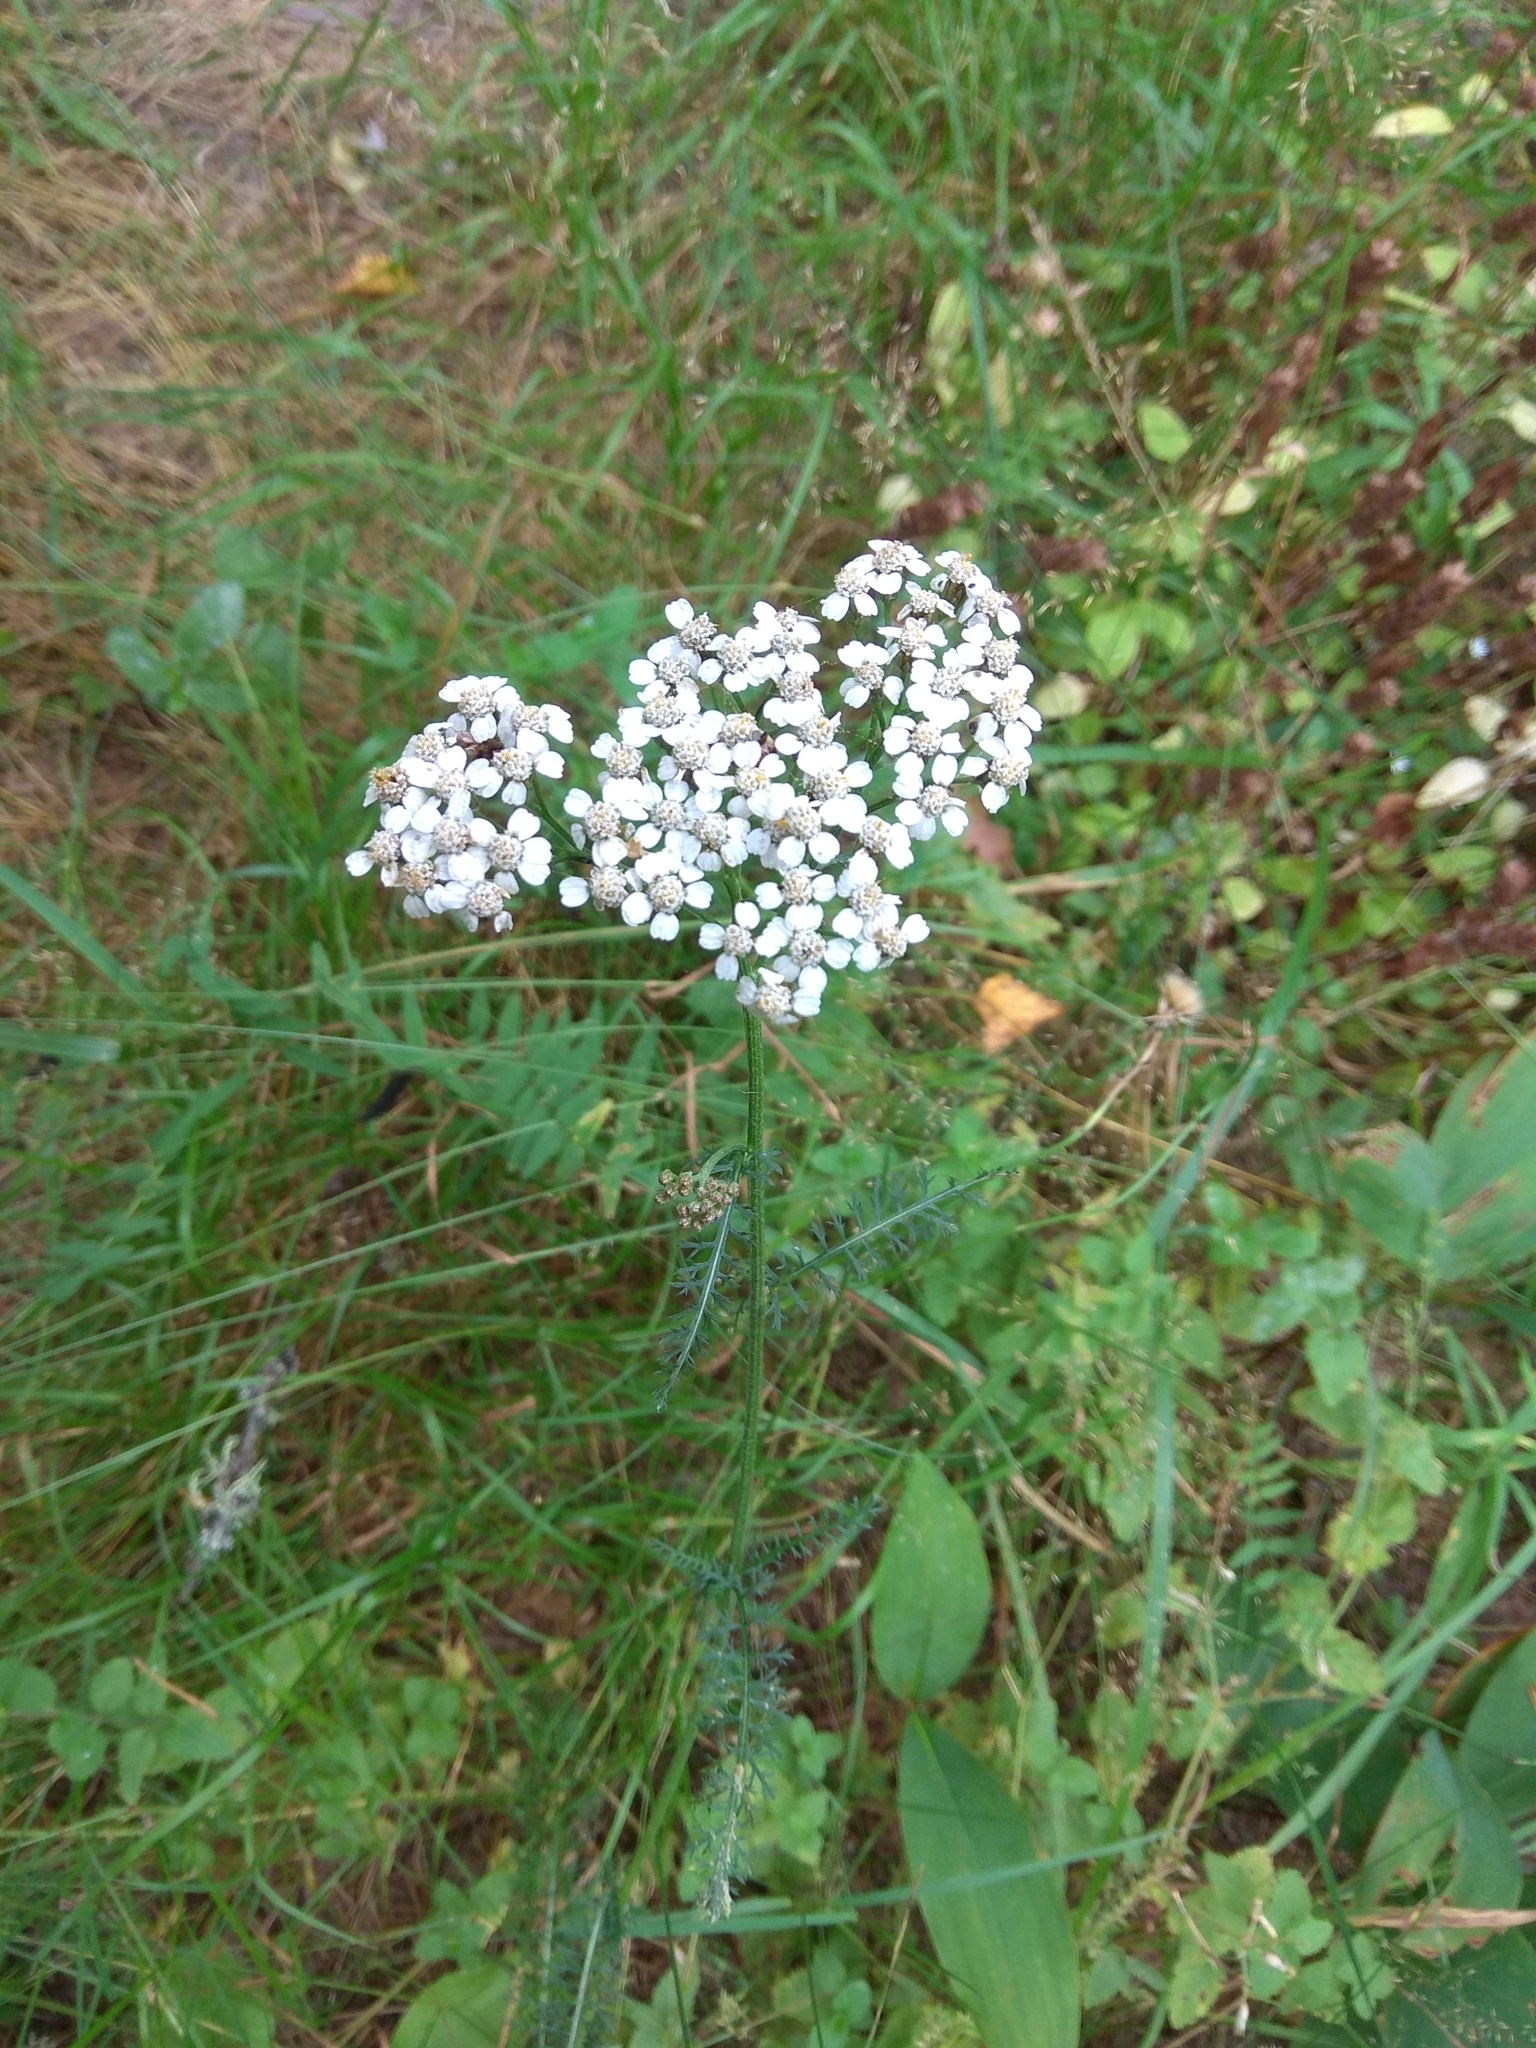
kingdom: Plantae
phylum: Tracheophyta
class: Magnoliopsida
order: Asterales
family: Asteraceae
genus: Achillea
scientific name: Achillea millefolium
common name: Yarrow
